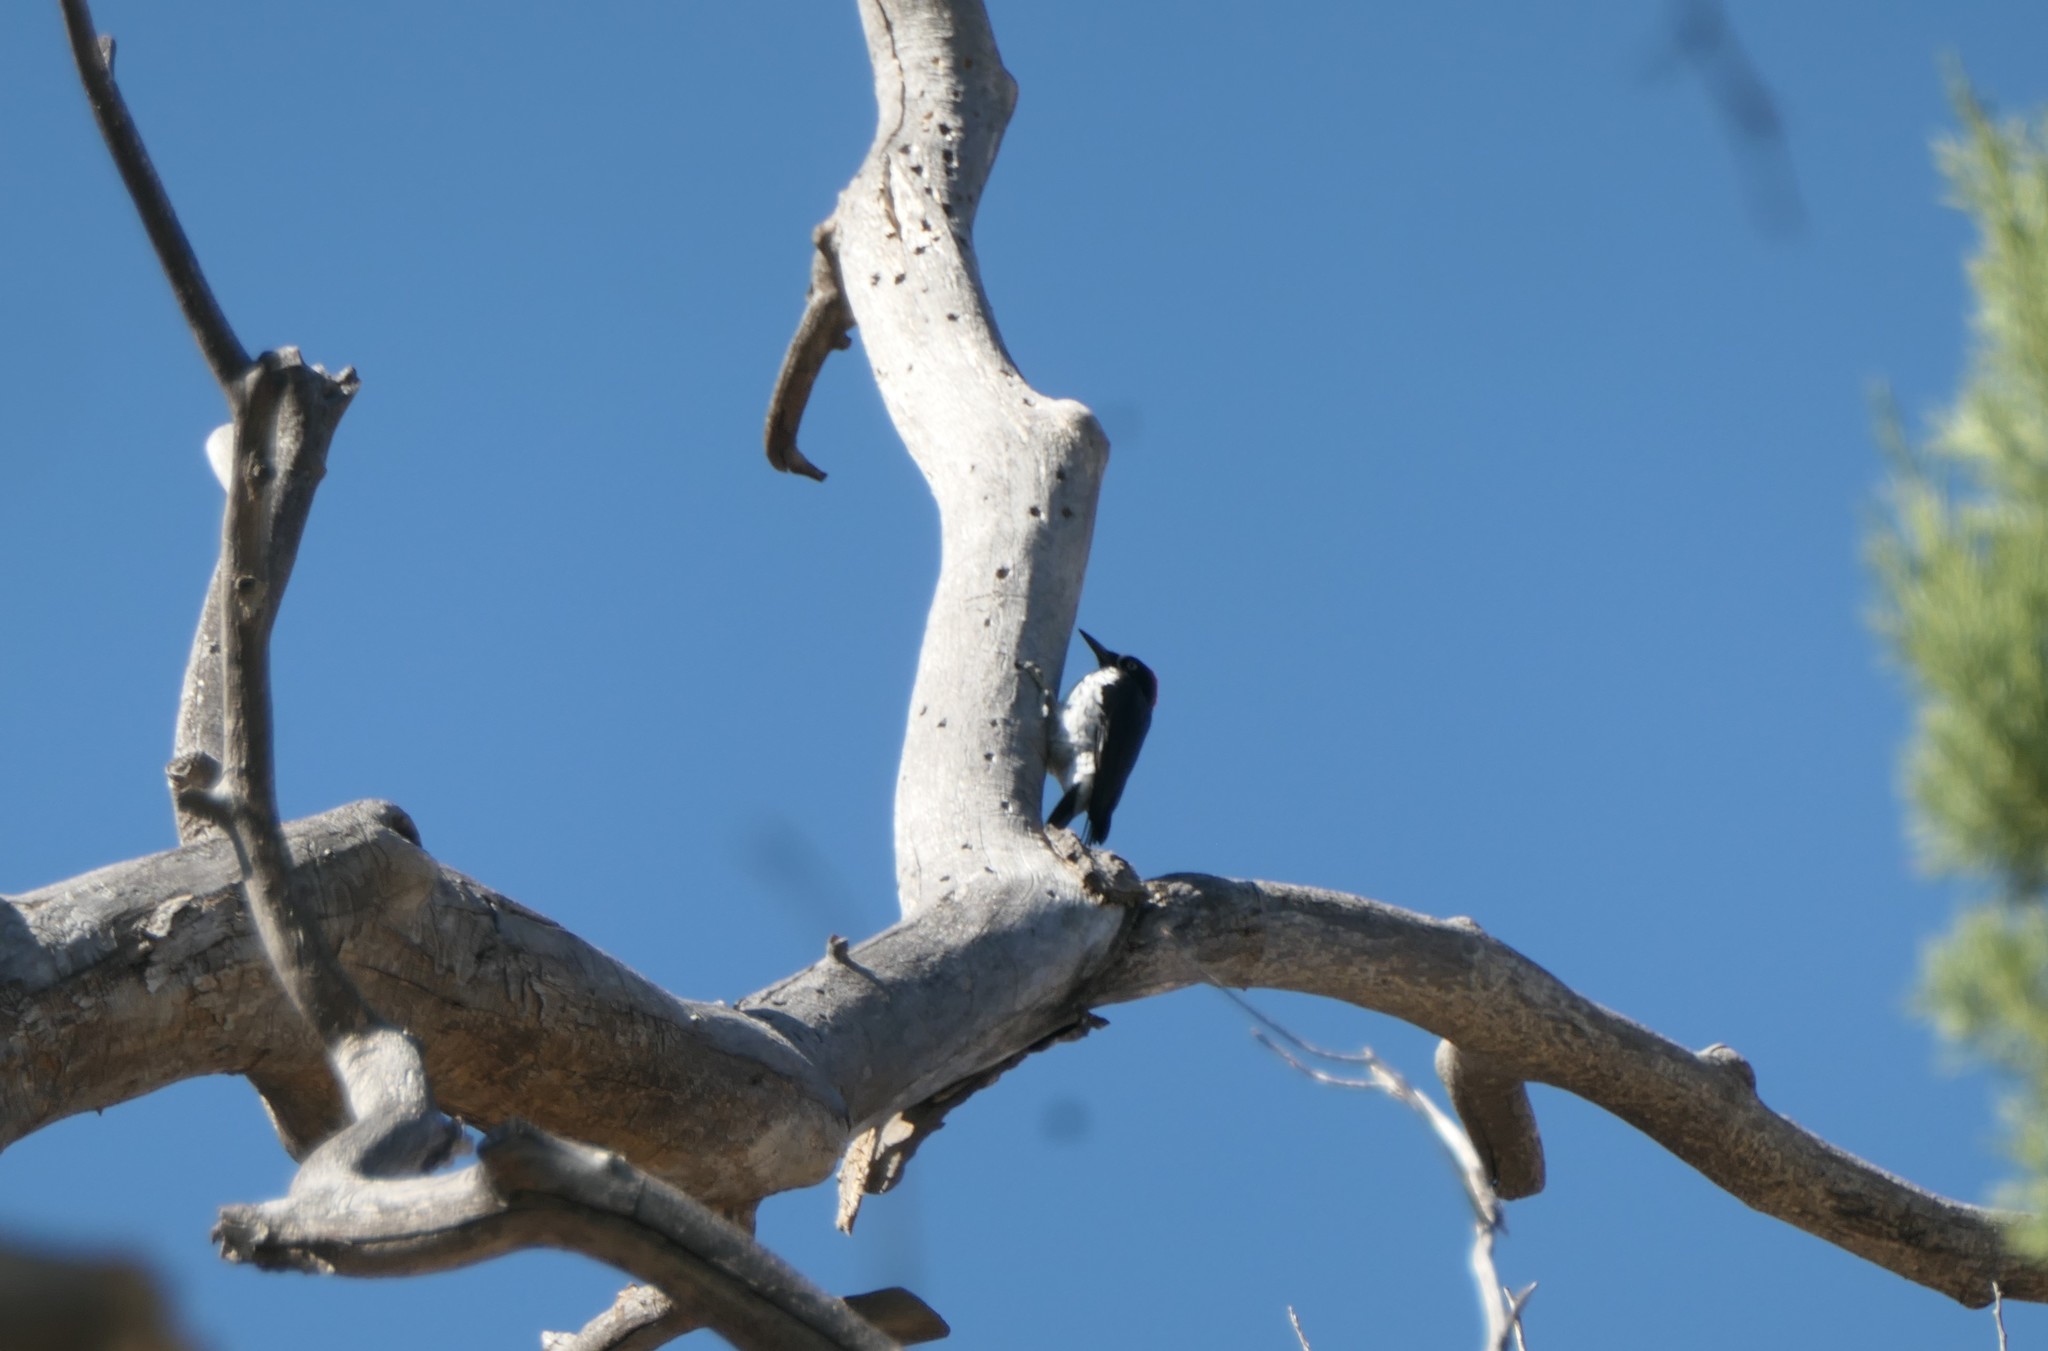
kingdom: Animalia
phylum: Chordata
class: Aves
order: Piciformes
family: Picidae
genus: Melanerpes
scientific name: Melanerpes formicivorus
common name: Acorn woodpecker
